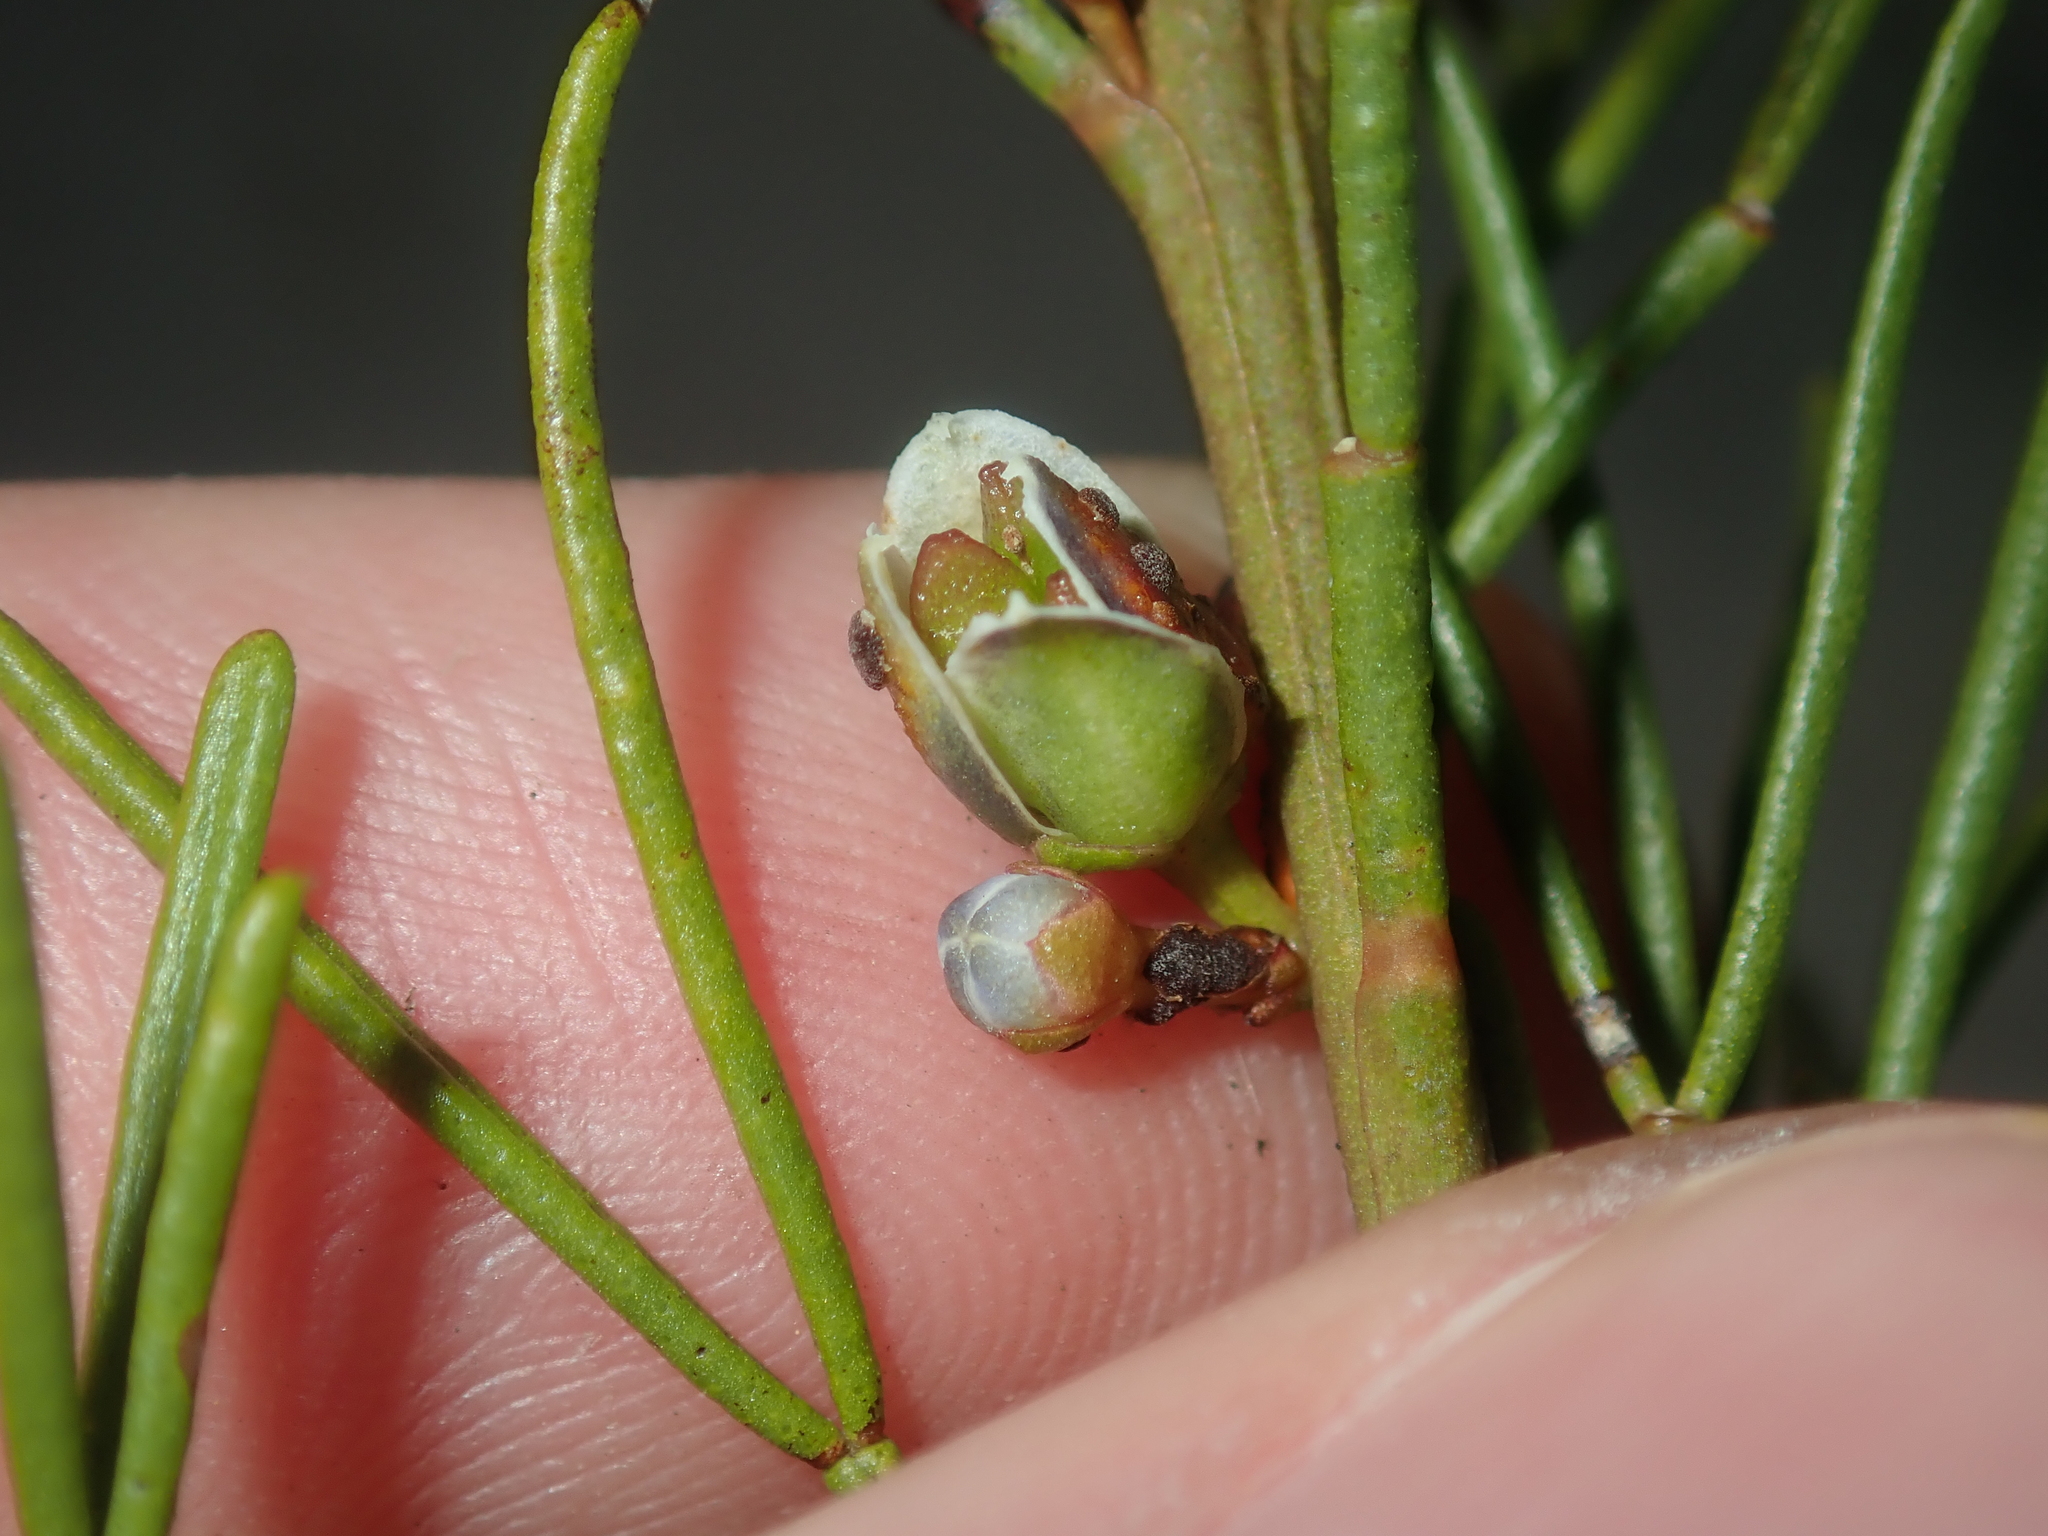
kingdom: Plantae
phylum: Tracheophyta
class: Magnoliopsida
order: Sapindales
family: Rutaceae
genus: Cyanothamnus
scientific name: Cyanothamnus ramosus
